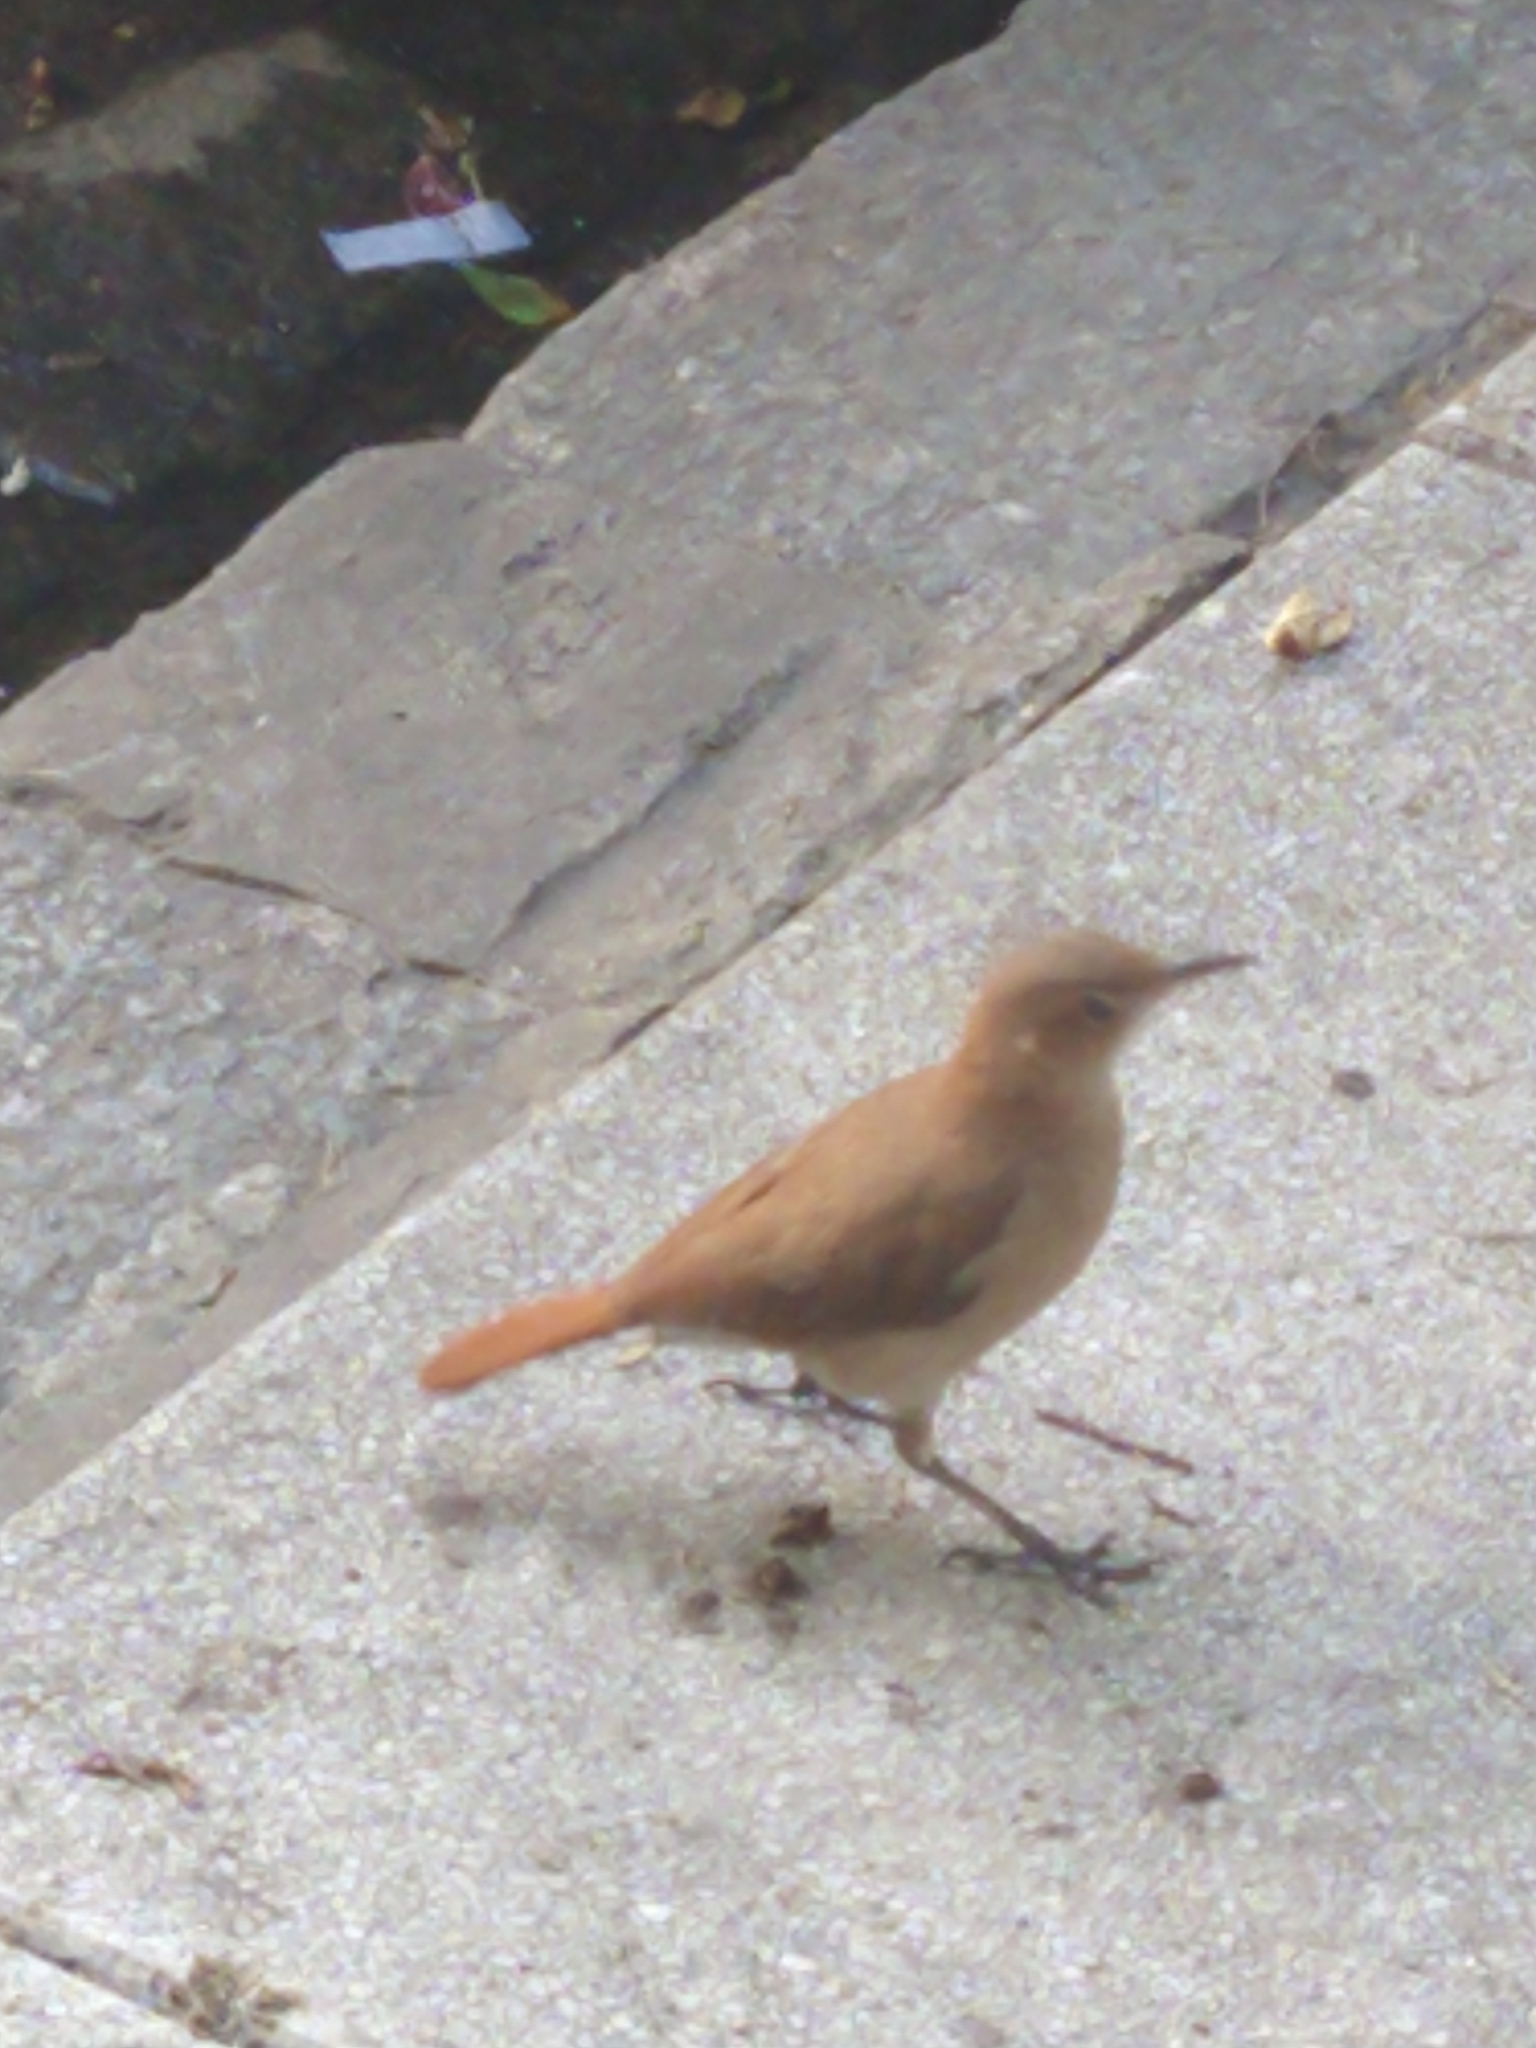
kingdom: Animalia
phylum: Chordata
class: Aves
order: Passeriformes
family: Furnariidae
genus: Furnarius
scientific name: Furnarius rufus
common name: Rufous hornero
